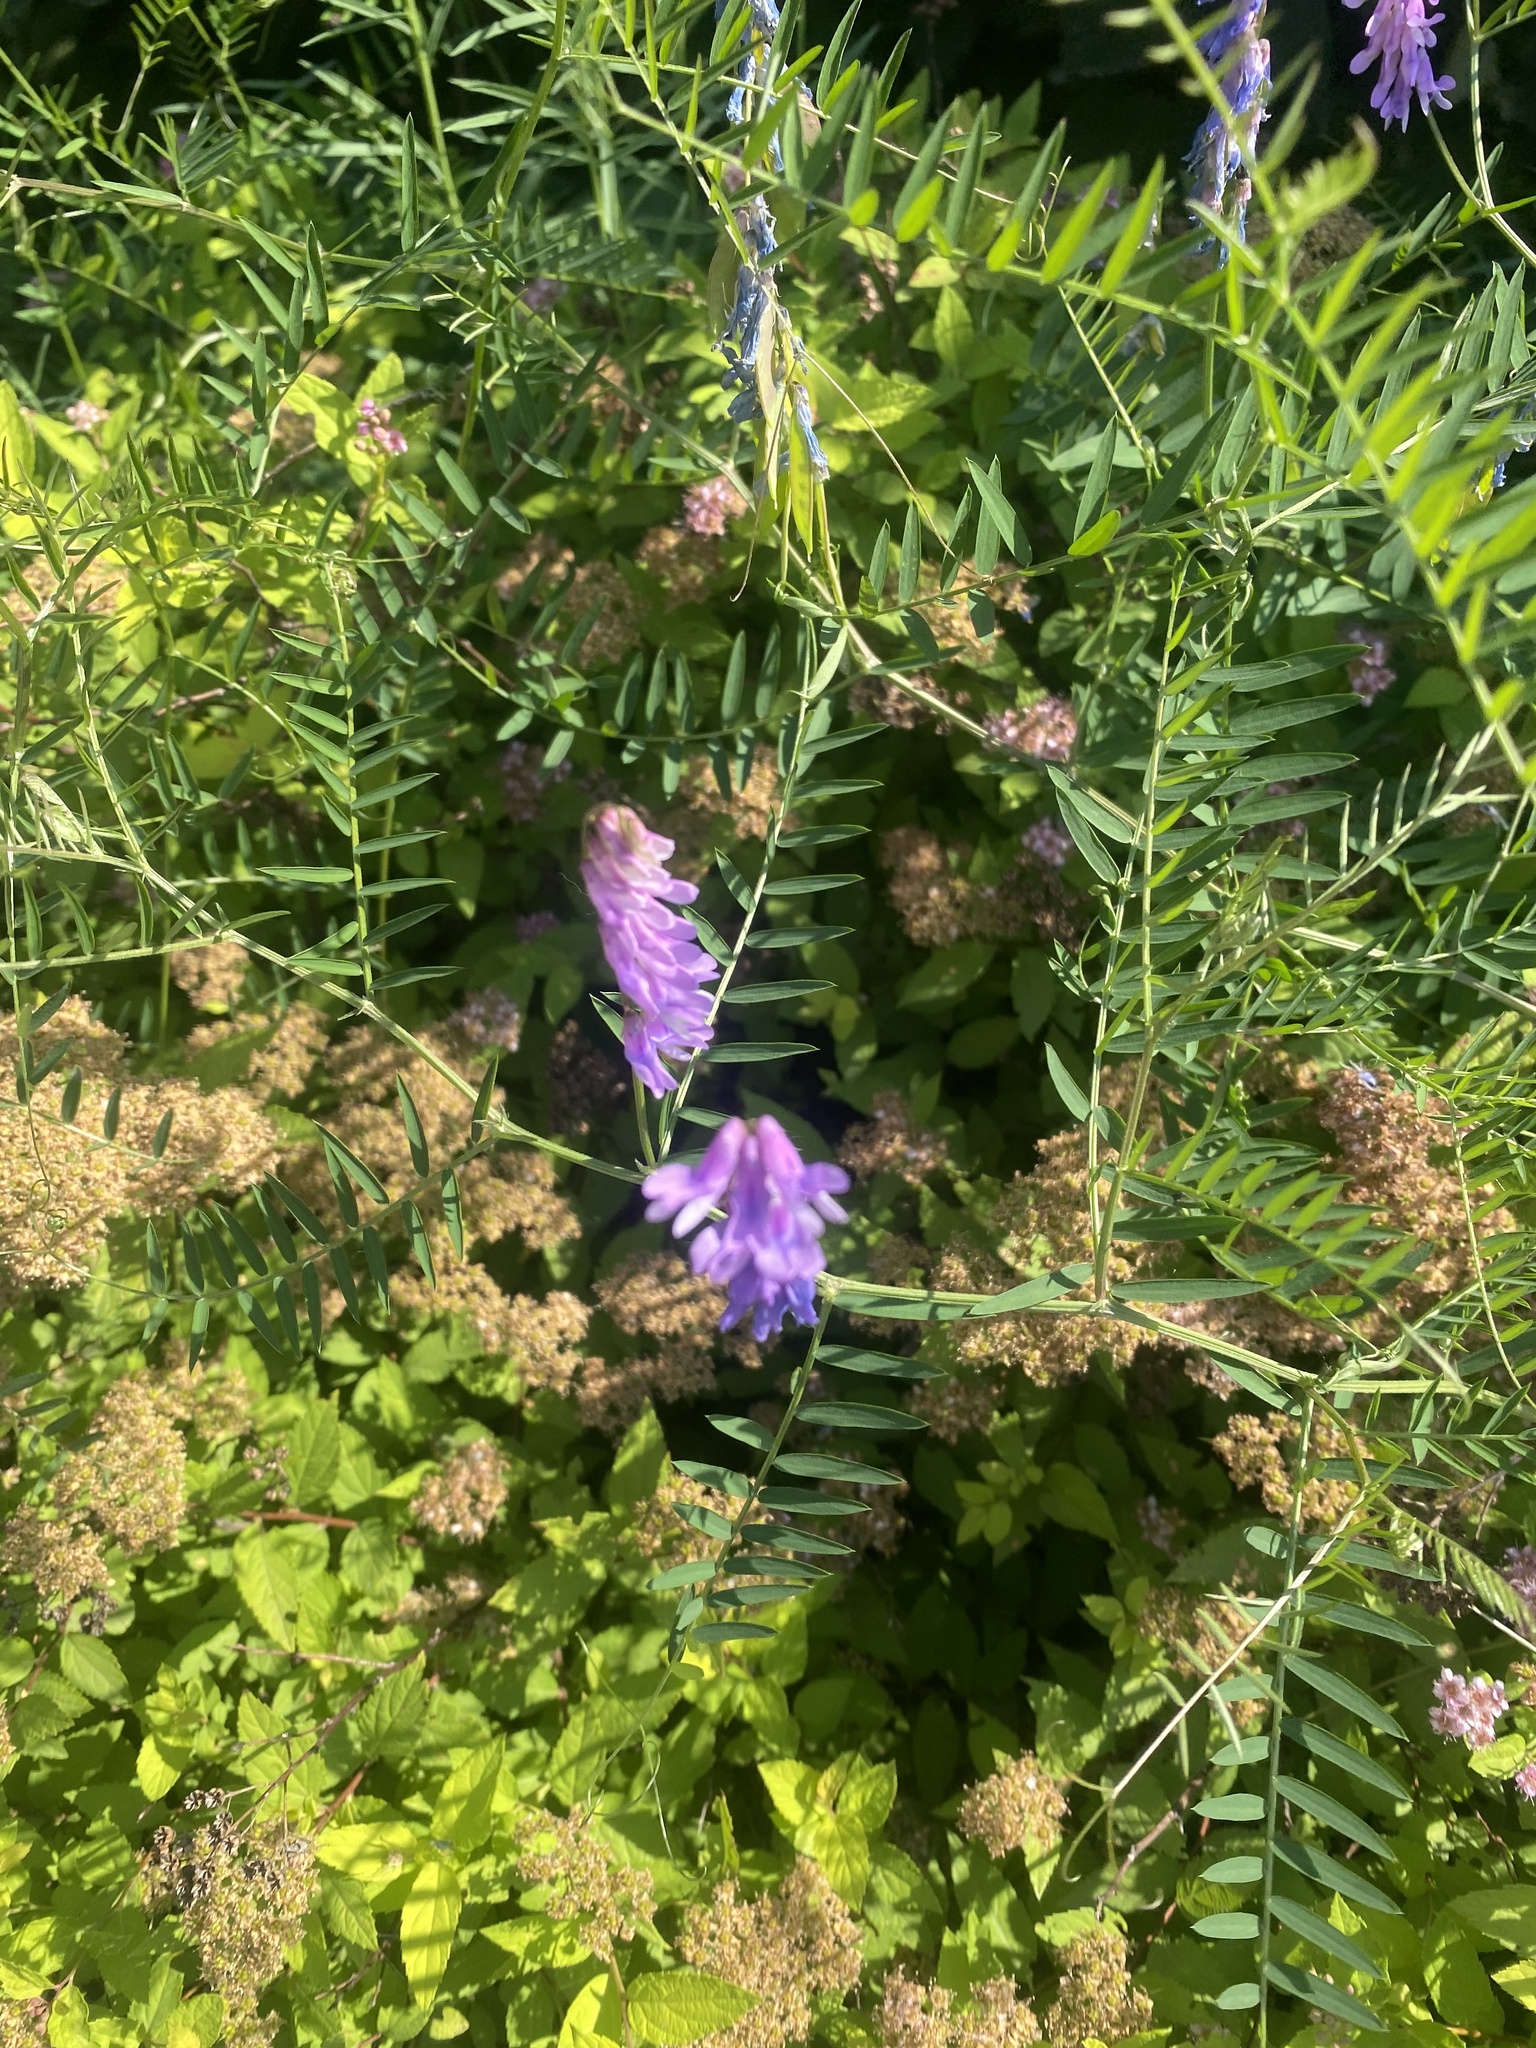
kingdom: Plantae
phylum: Tracheophyta
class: Magnoliopsida
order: Fabales
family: Fabaceae
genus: Vicia
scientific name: Vicia cracca
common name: Bird vetch
